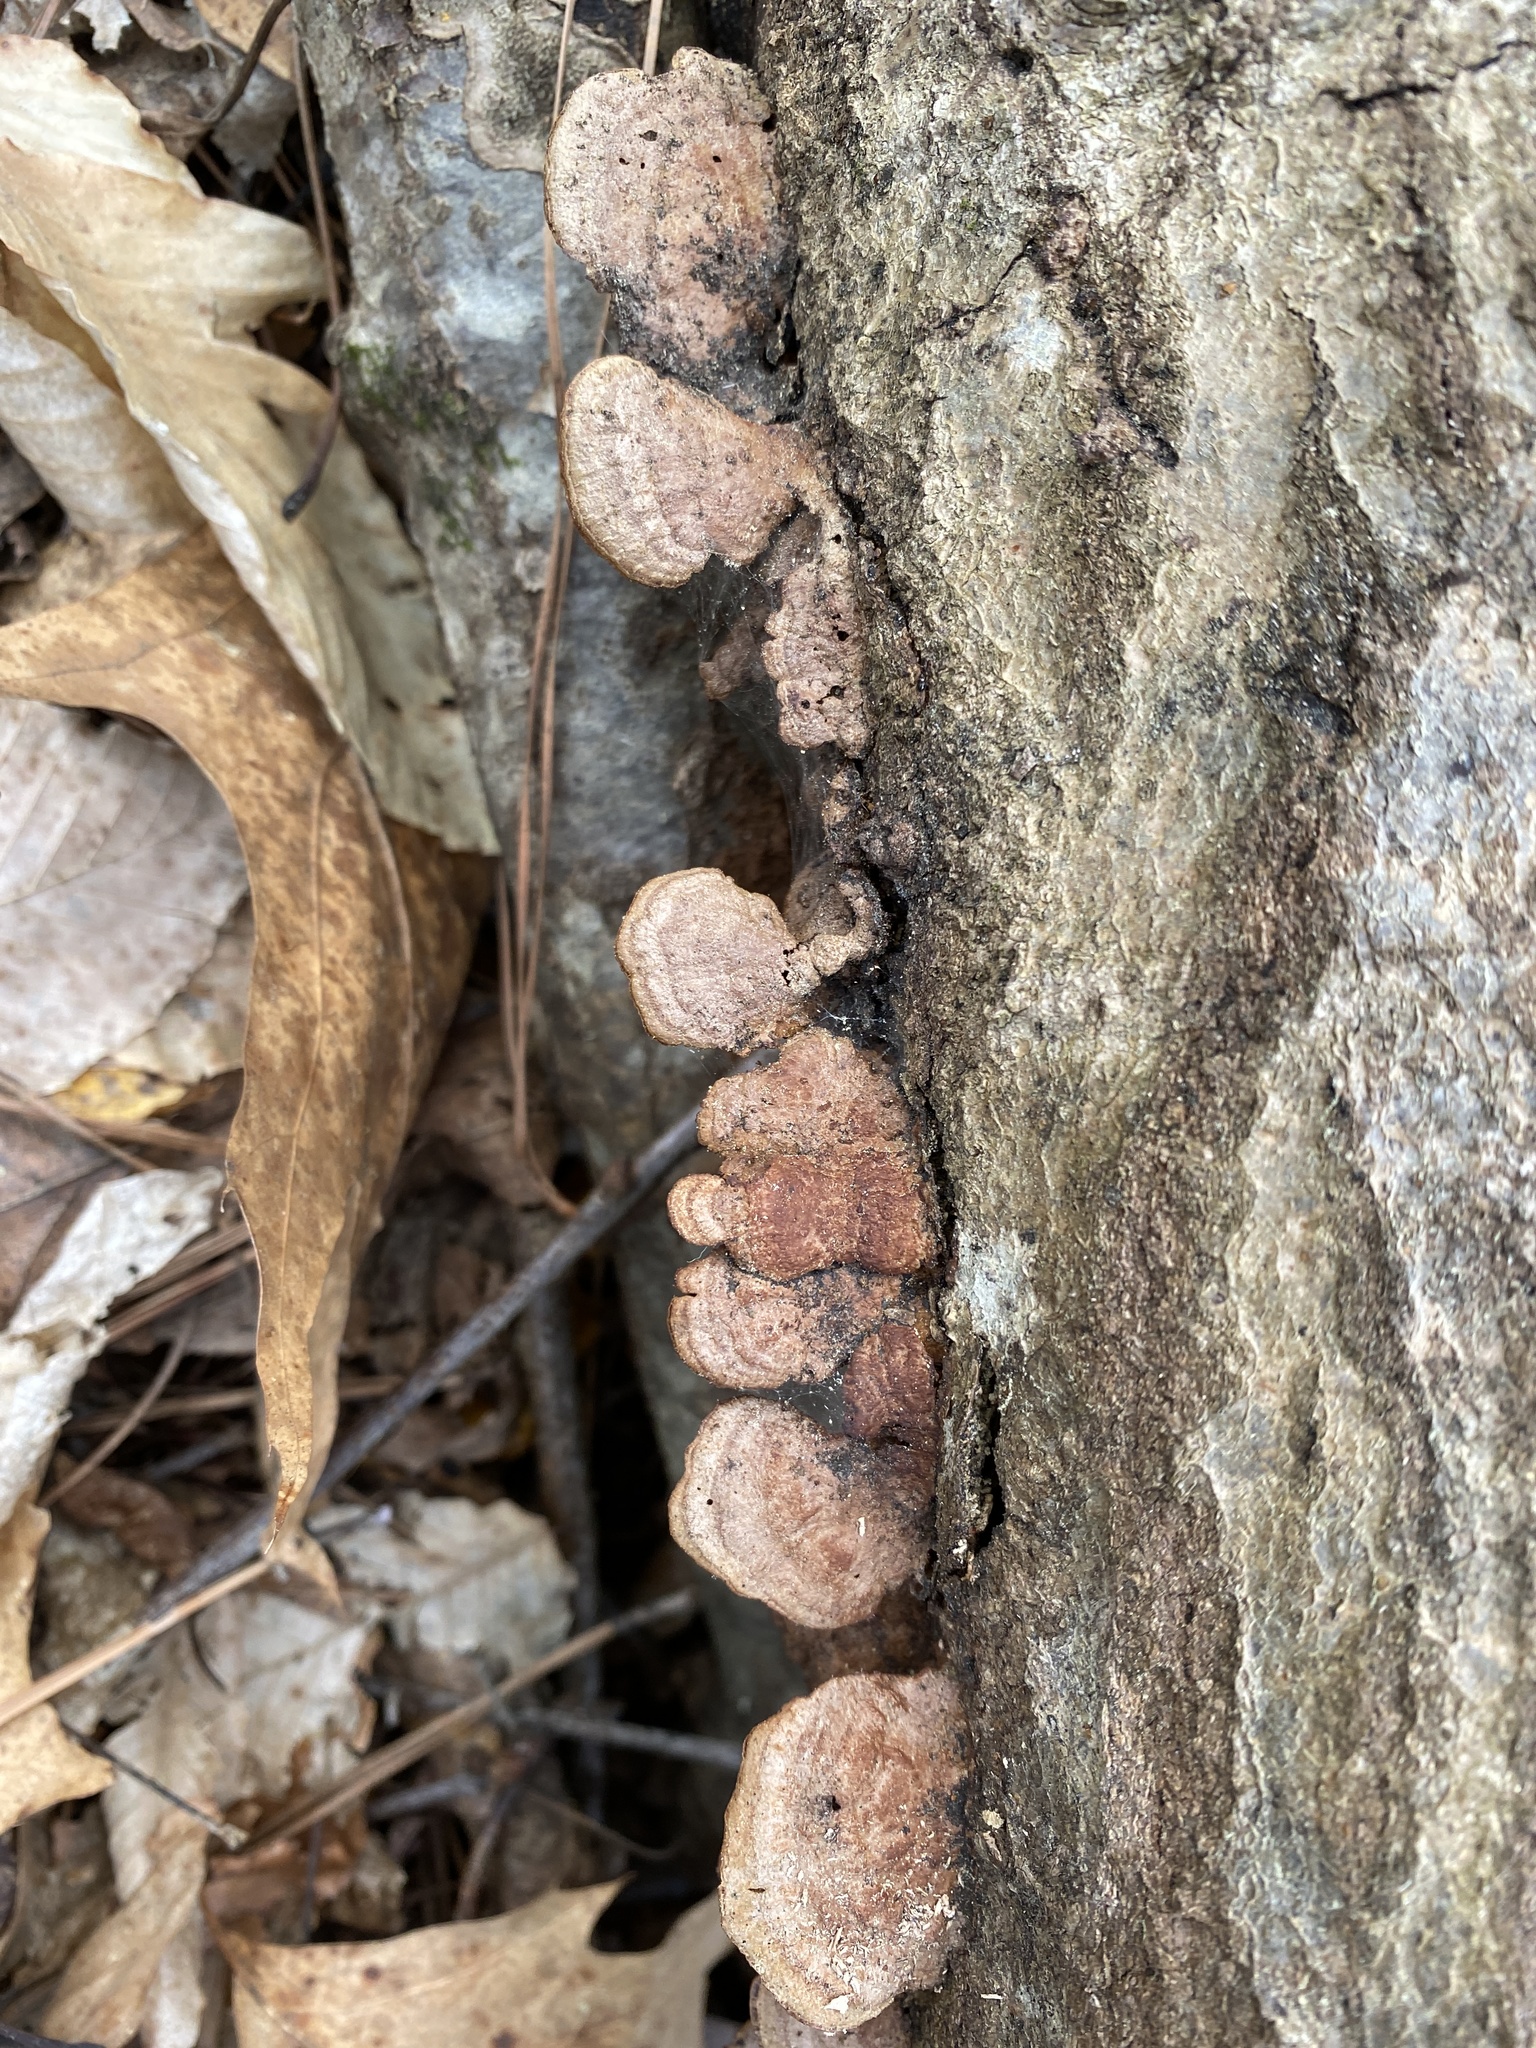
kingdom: Fungi
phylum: Basidiomycota
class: Agaricomycetes
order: Hymenochaetales
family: Hymenochaetaceae
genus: Phellinus
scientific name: Phellinus gilvus
